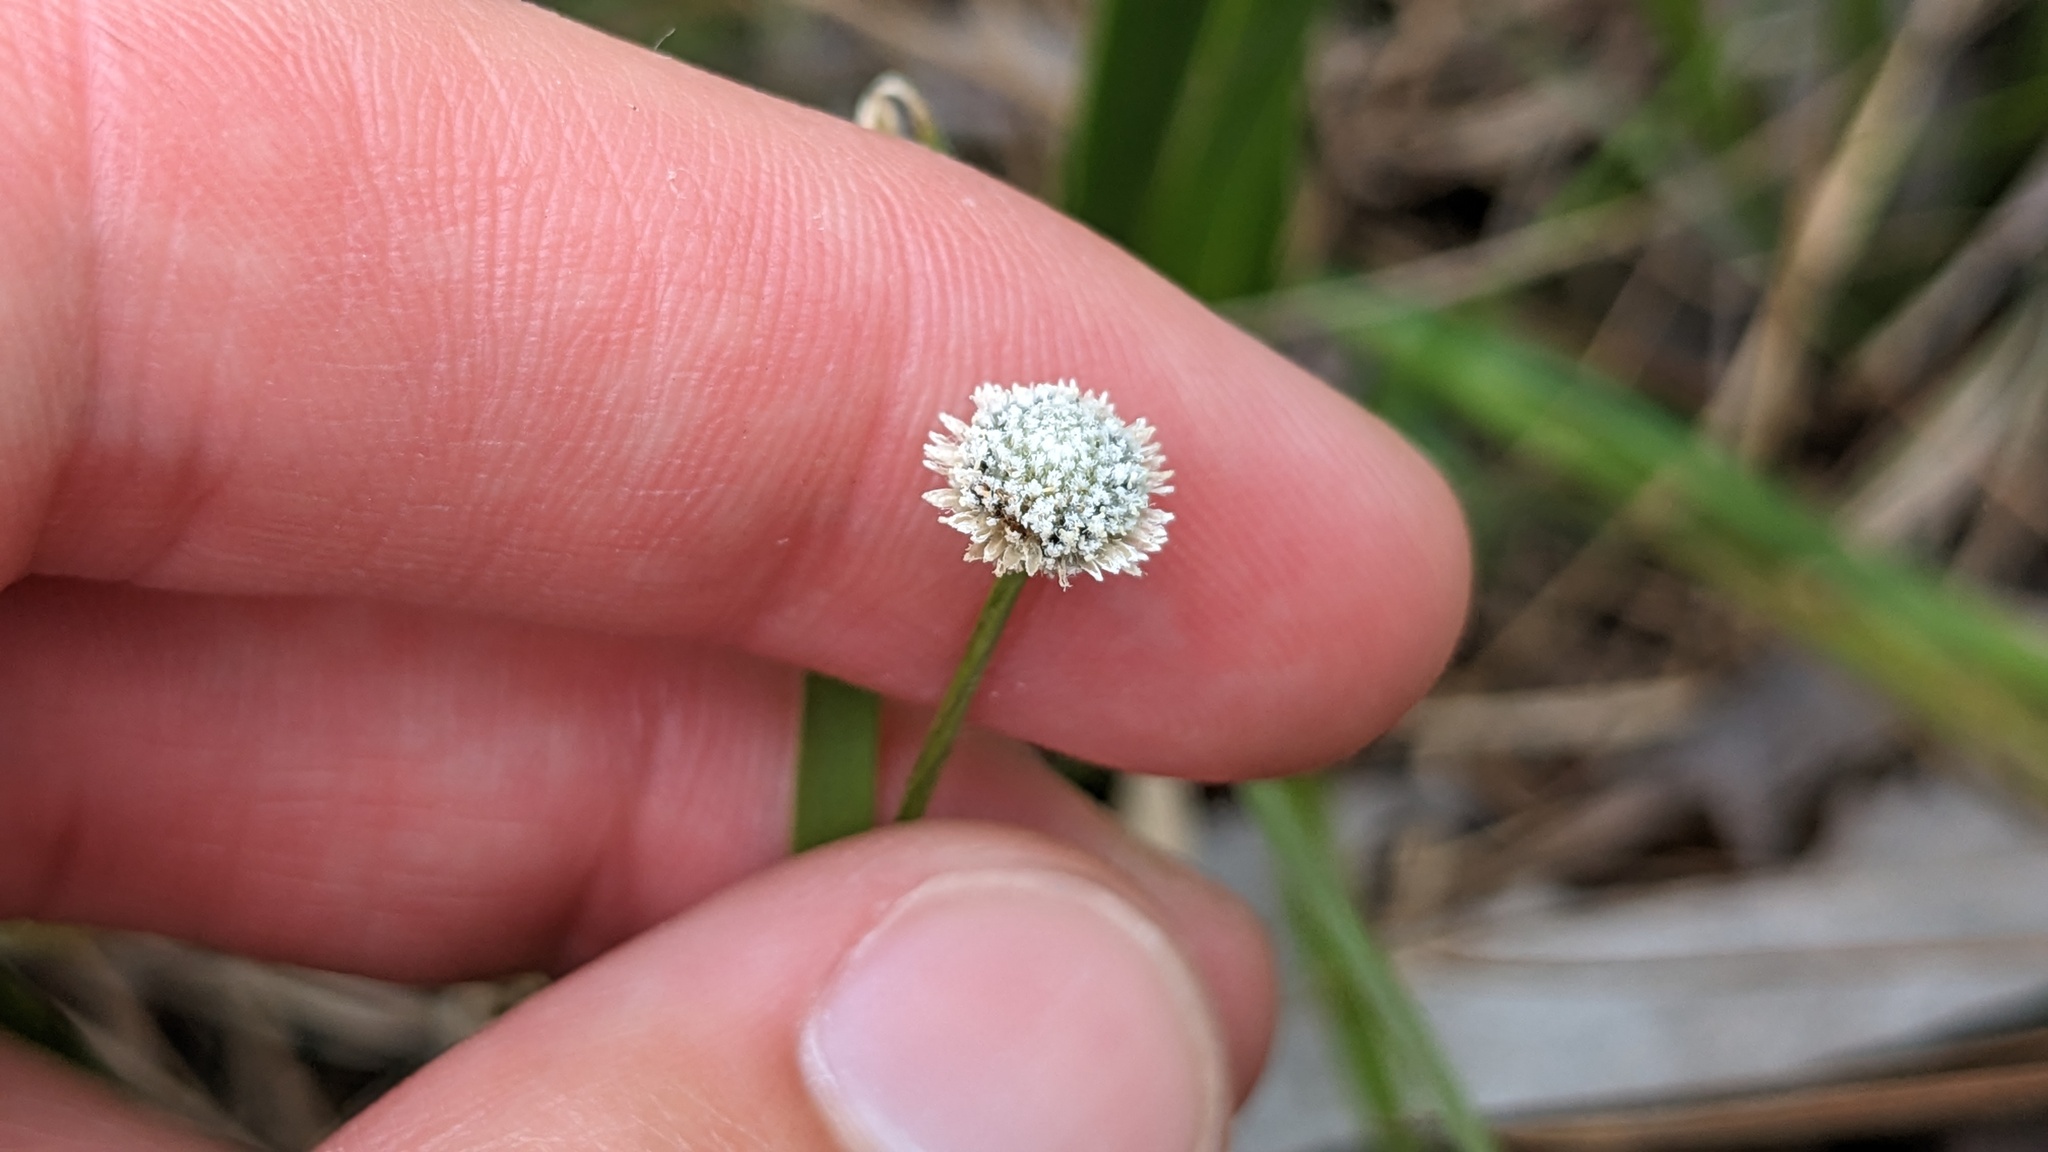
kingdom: Plantae
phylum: Tracheophyta
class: Liliopsida
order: Poales
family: Eriocaulaceae
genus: Paepalanthus
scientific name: Paepalanthus anceps
